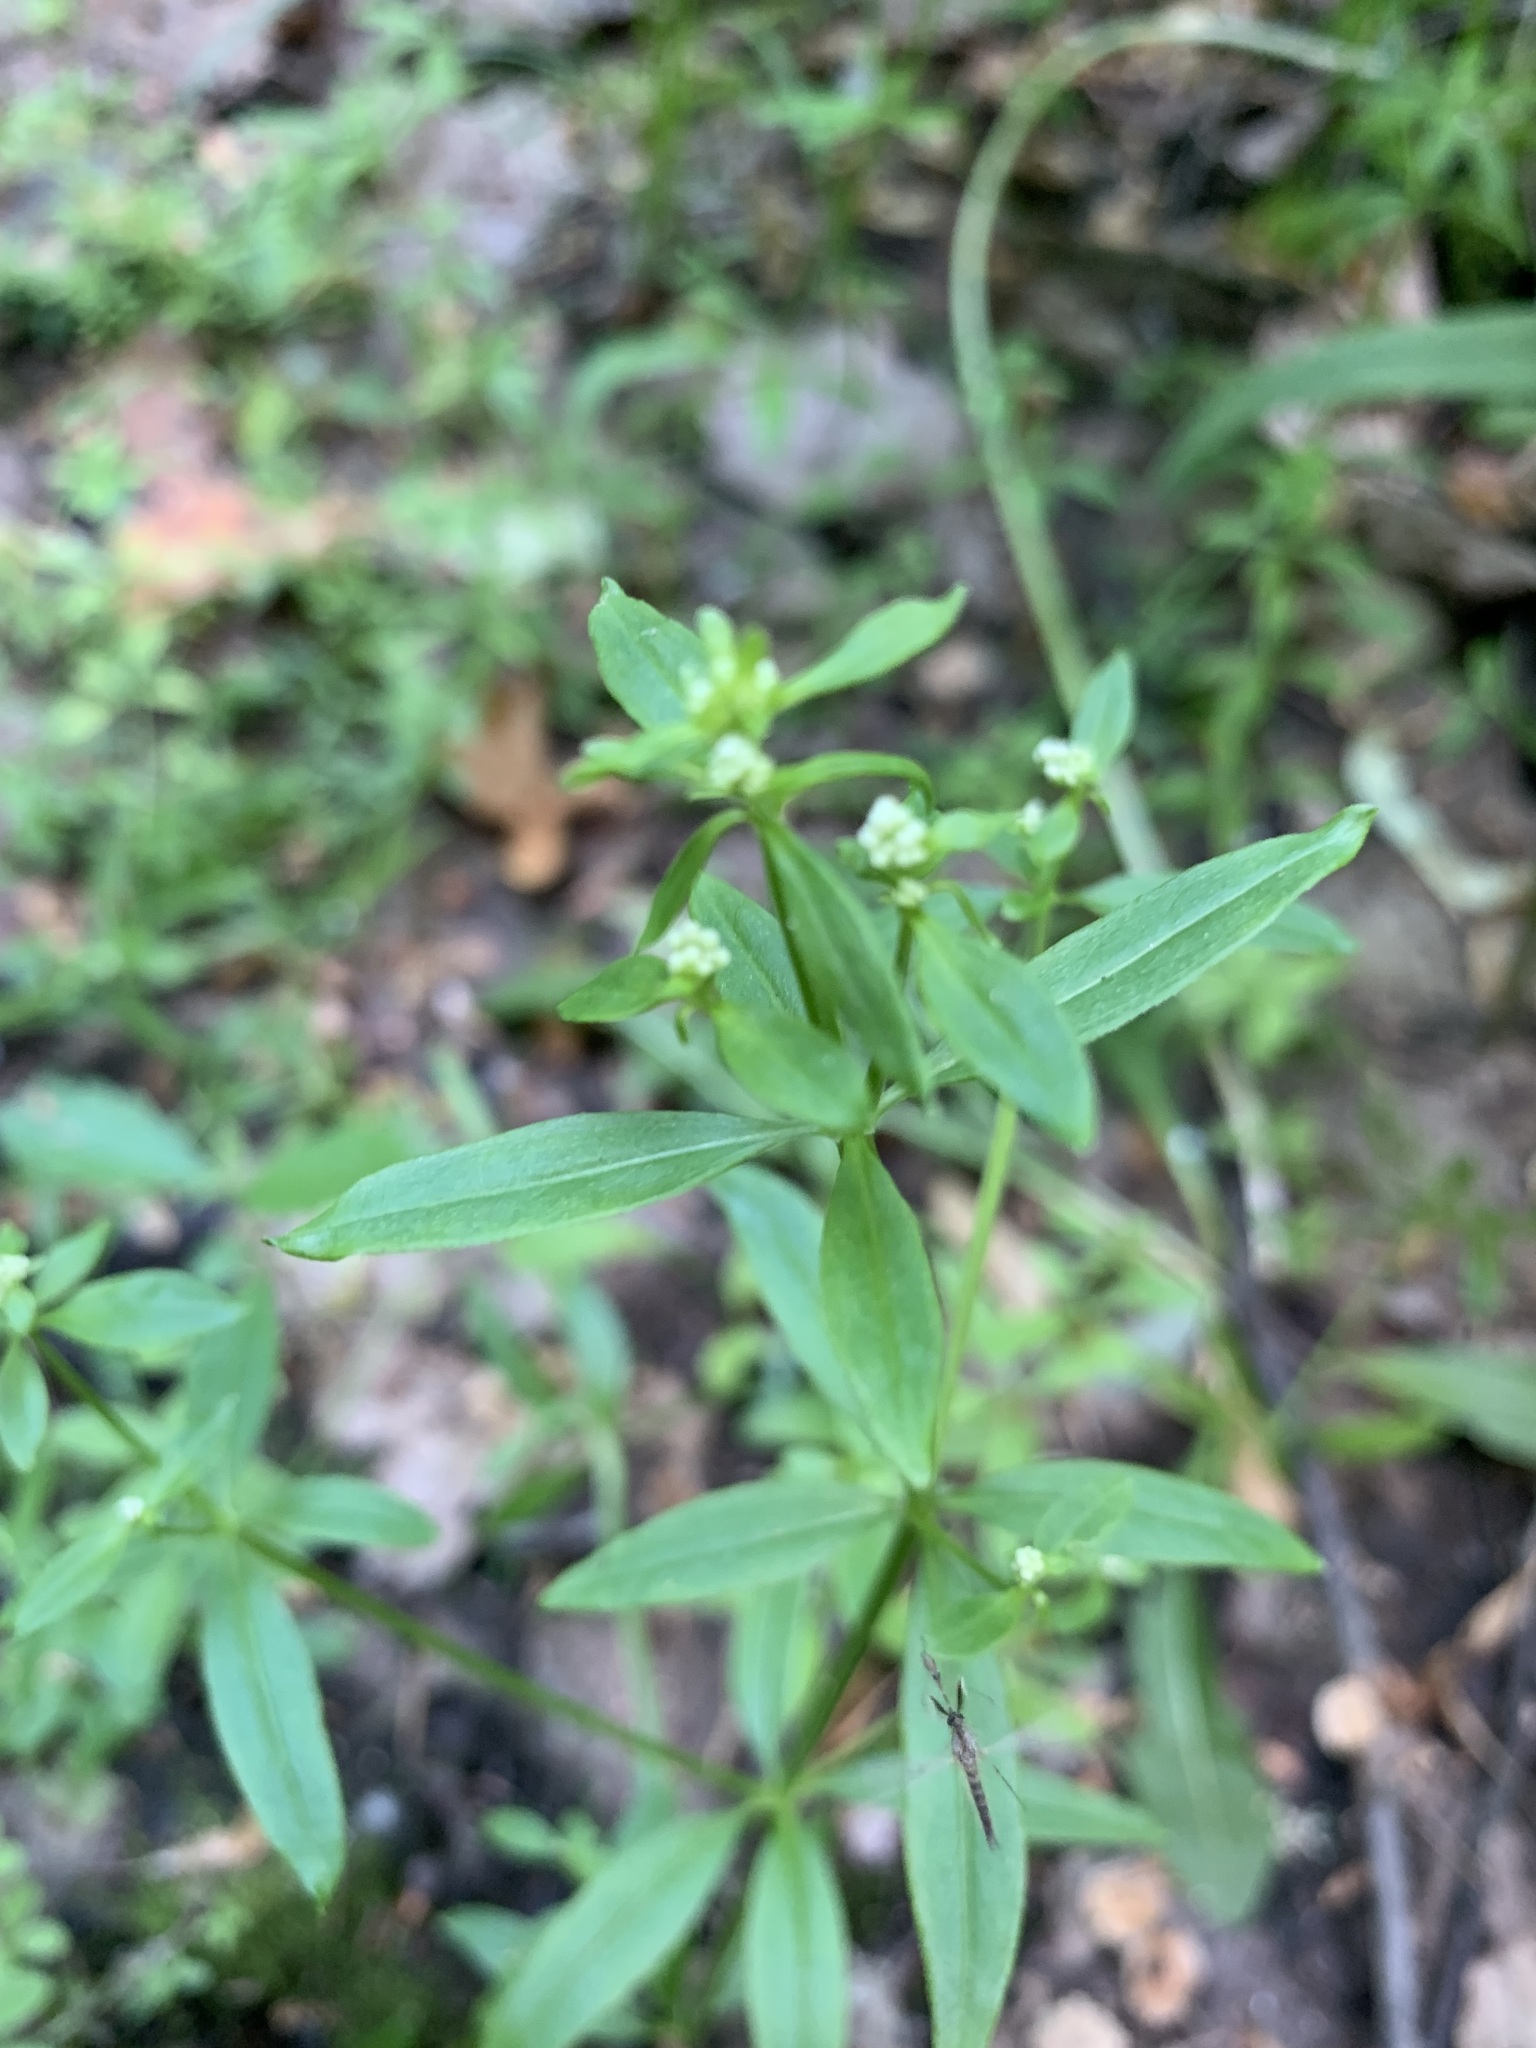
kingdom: Plantae
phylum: Tracheophyta
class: Magnoliopsida
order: Gentianales
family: Rubiaceae
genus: Galium
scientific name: Galium palustre
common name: Common marsh-bedstraw
